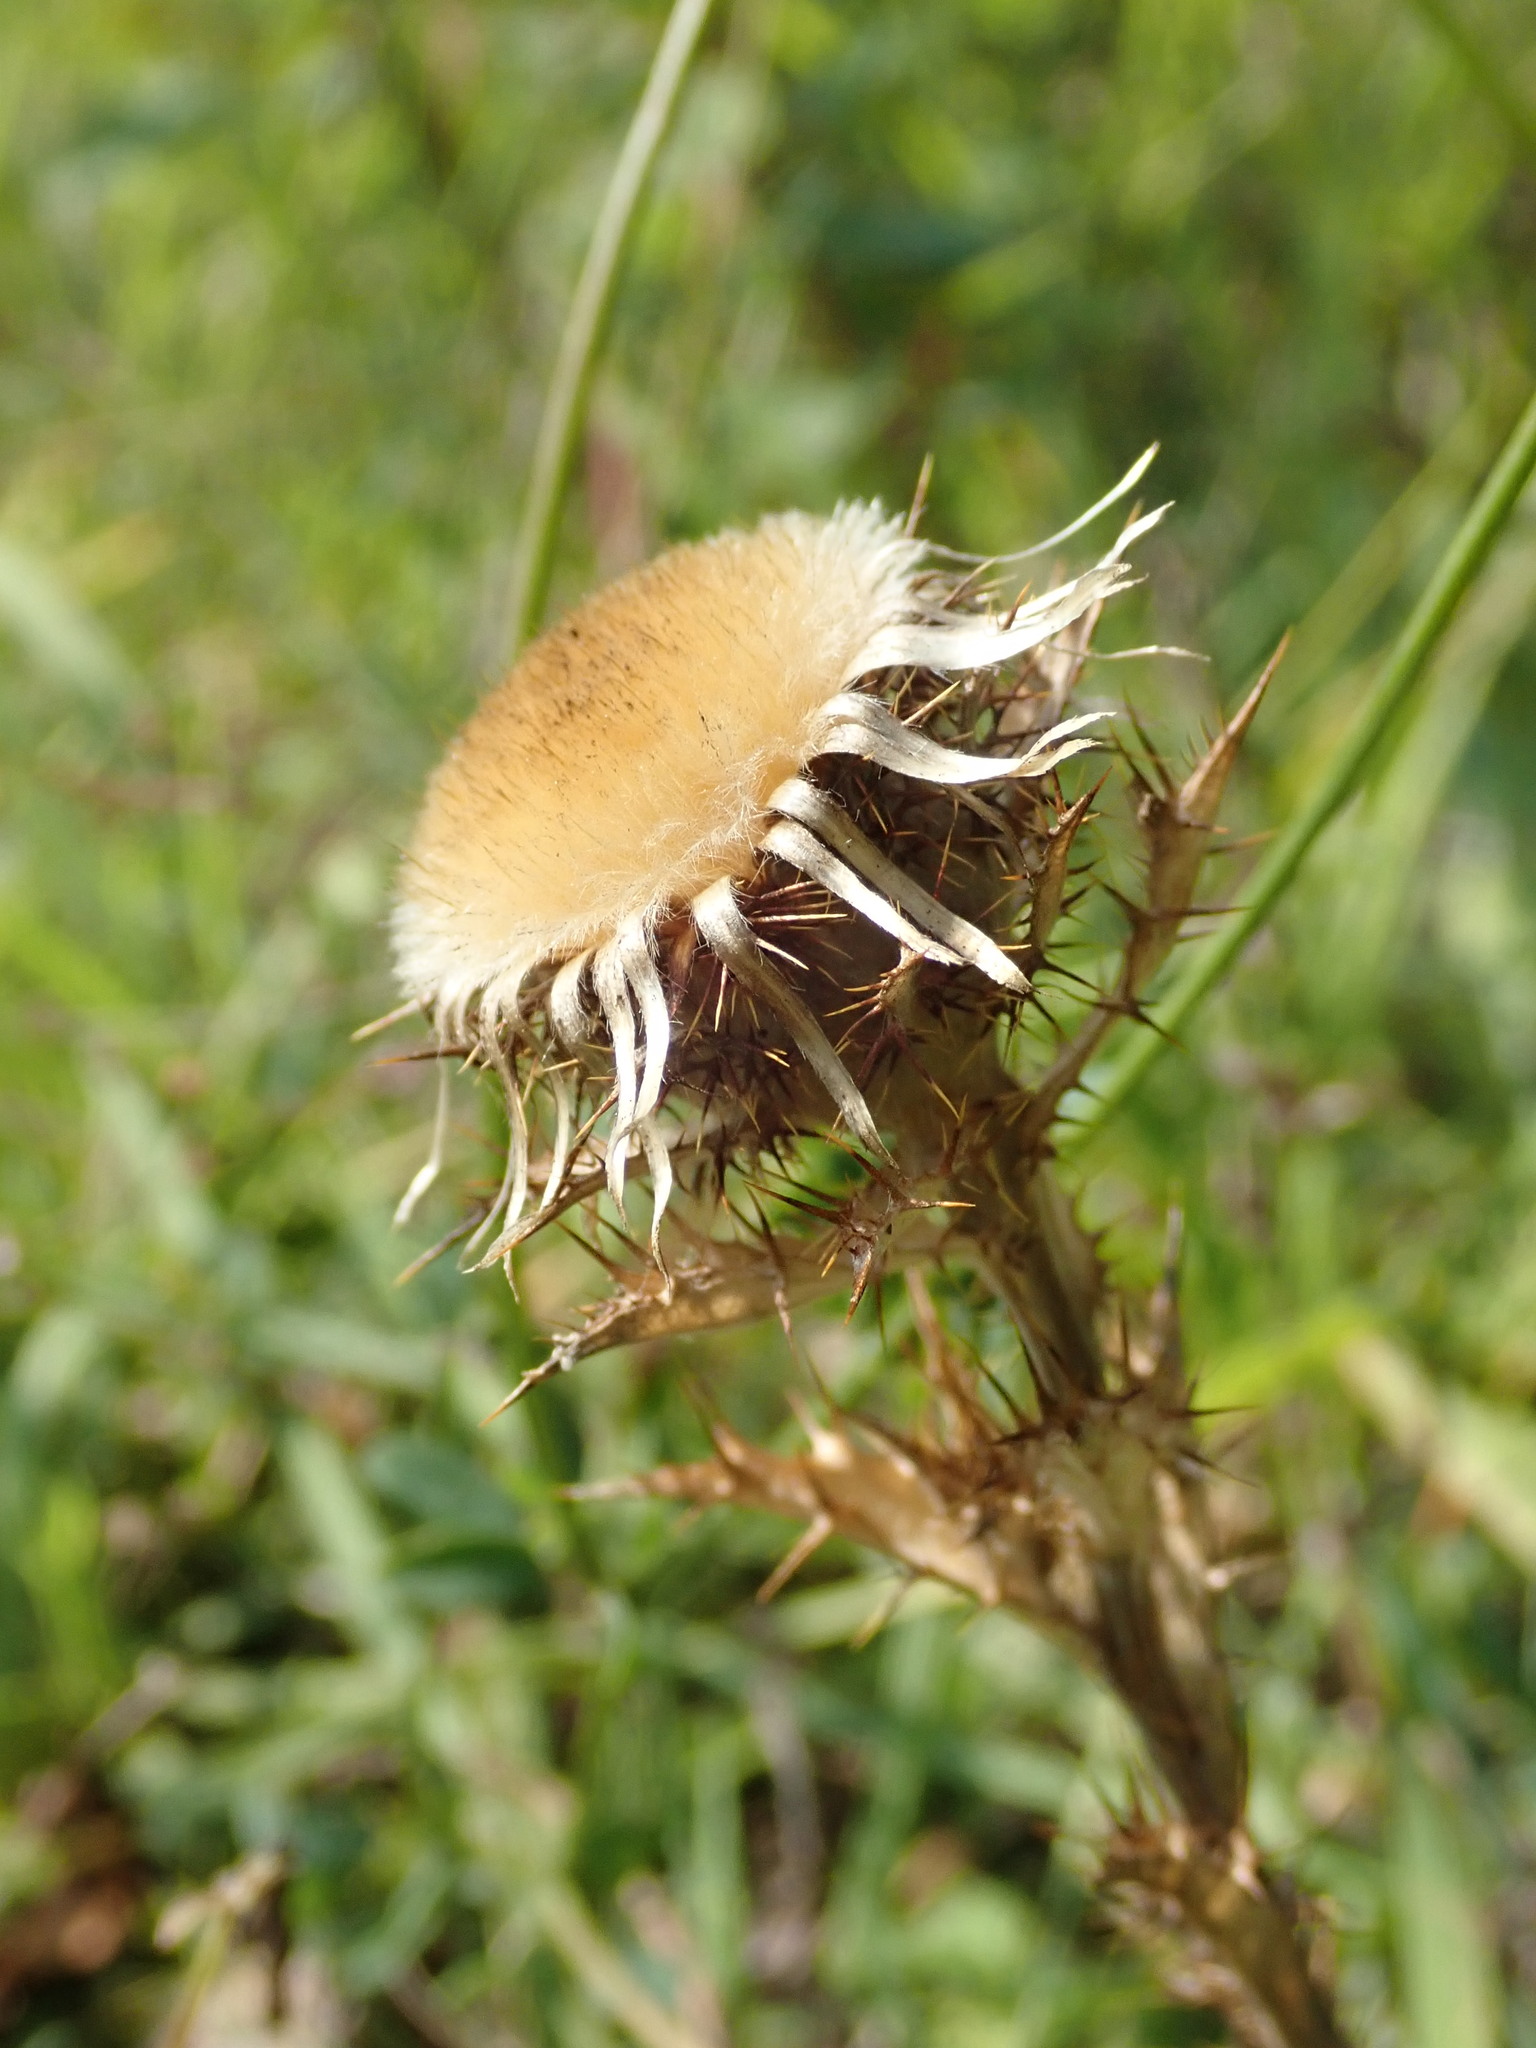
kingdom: Plantae
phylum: Tracheophyta
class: Magnoliopsida
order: Asterales
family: Asteraceae
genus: Carlina
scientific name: Carlina vulgaris
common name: Carline thistle
